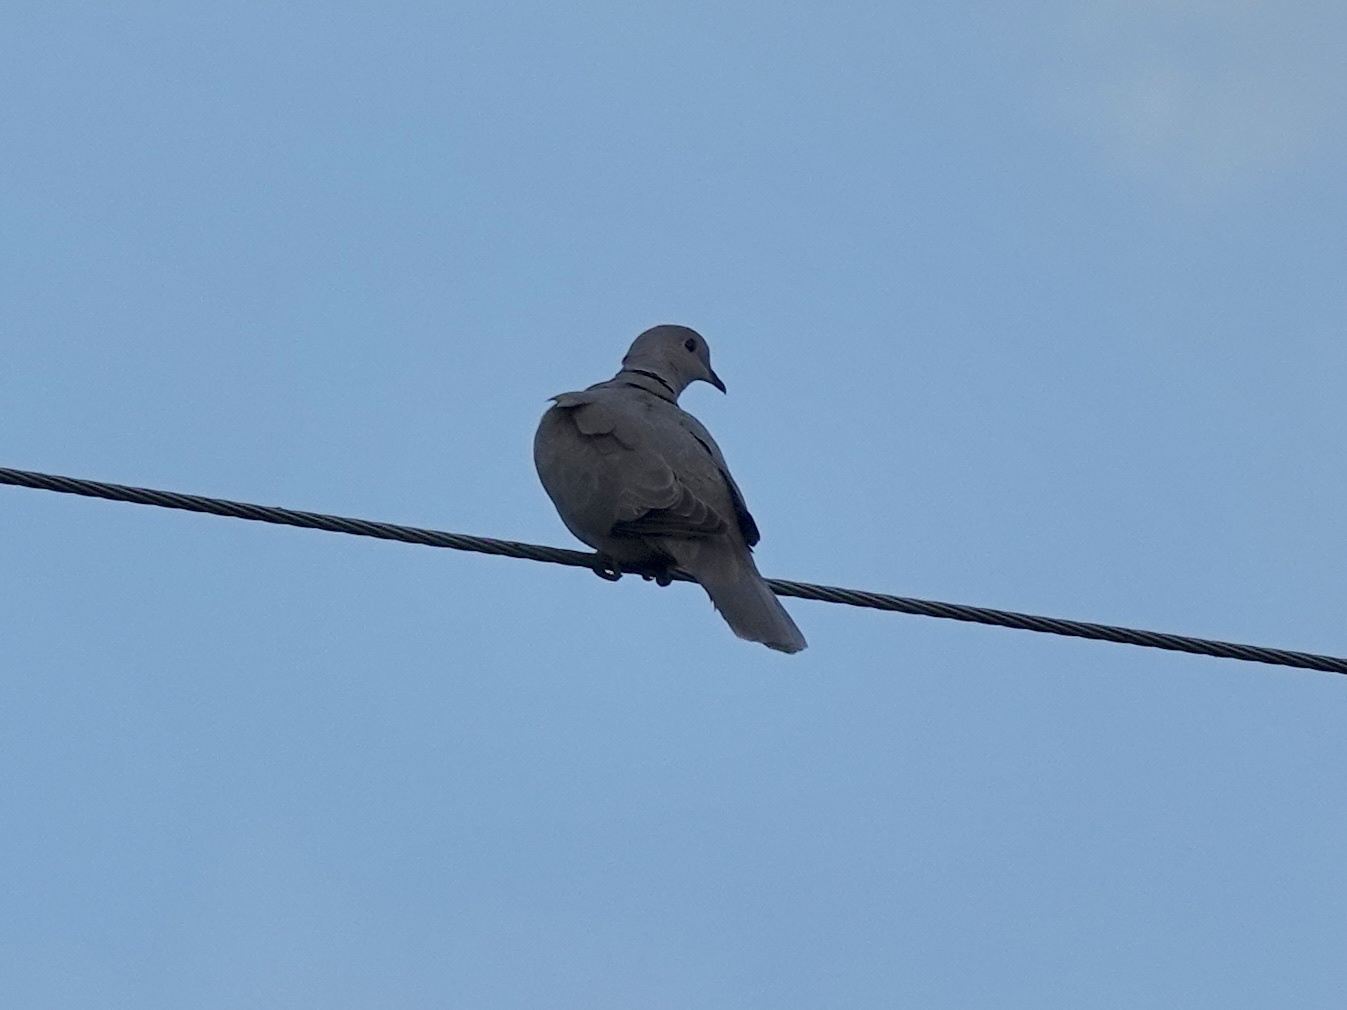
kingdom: Animalia
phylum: Chordata
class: Aves
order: Columbiformes
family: Columbidae
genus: Streptopelia
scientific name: Streptopelia decaocto
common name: Eurasian collared dove
